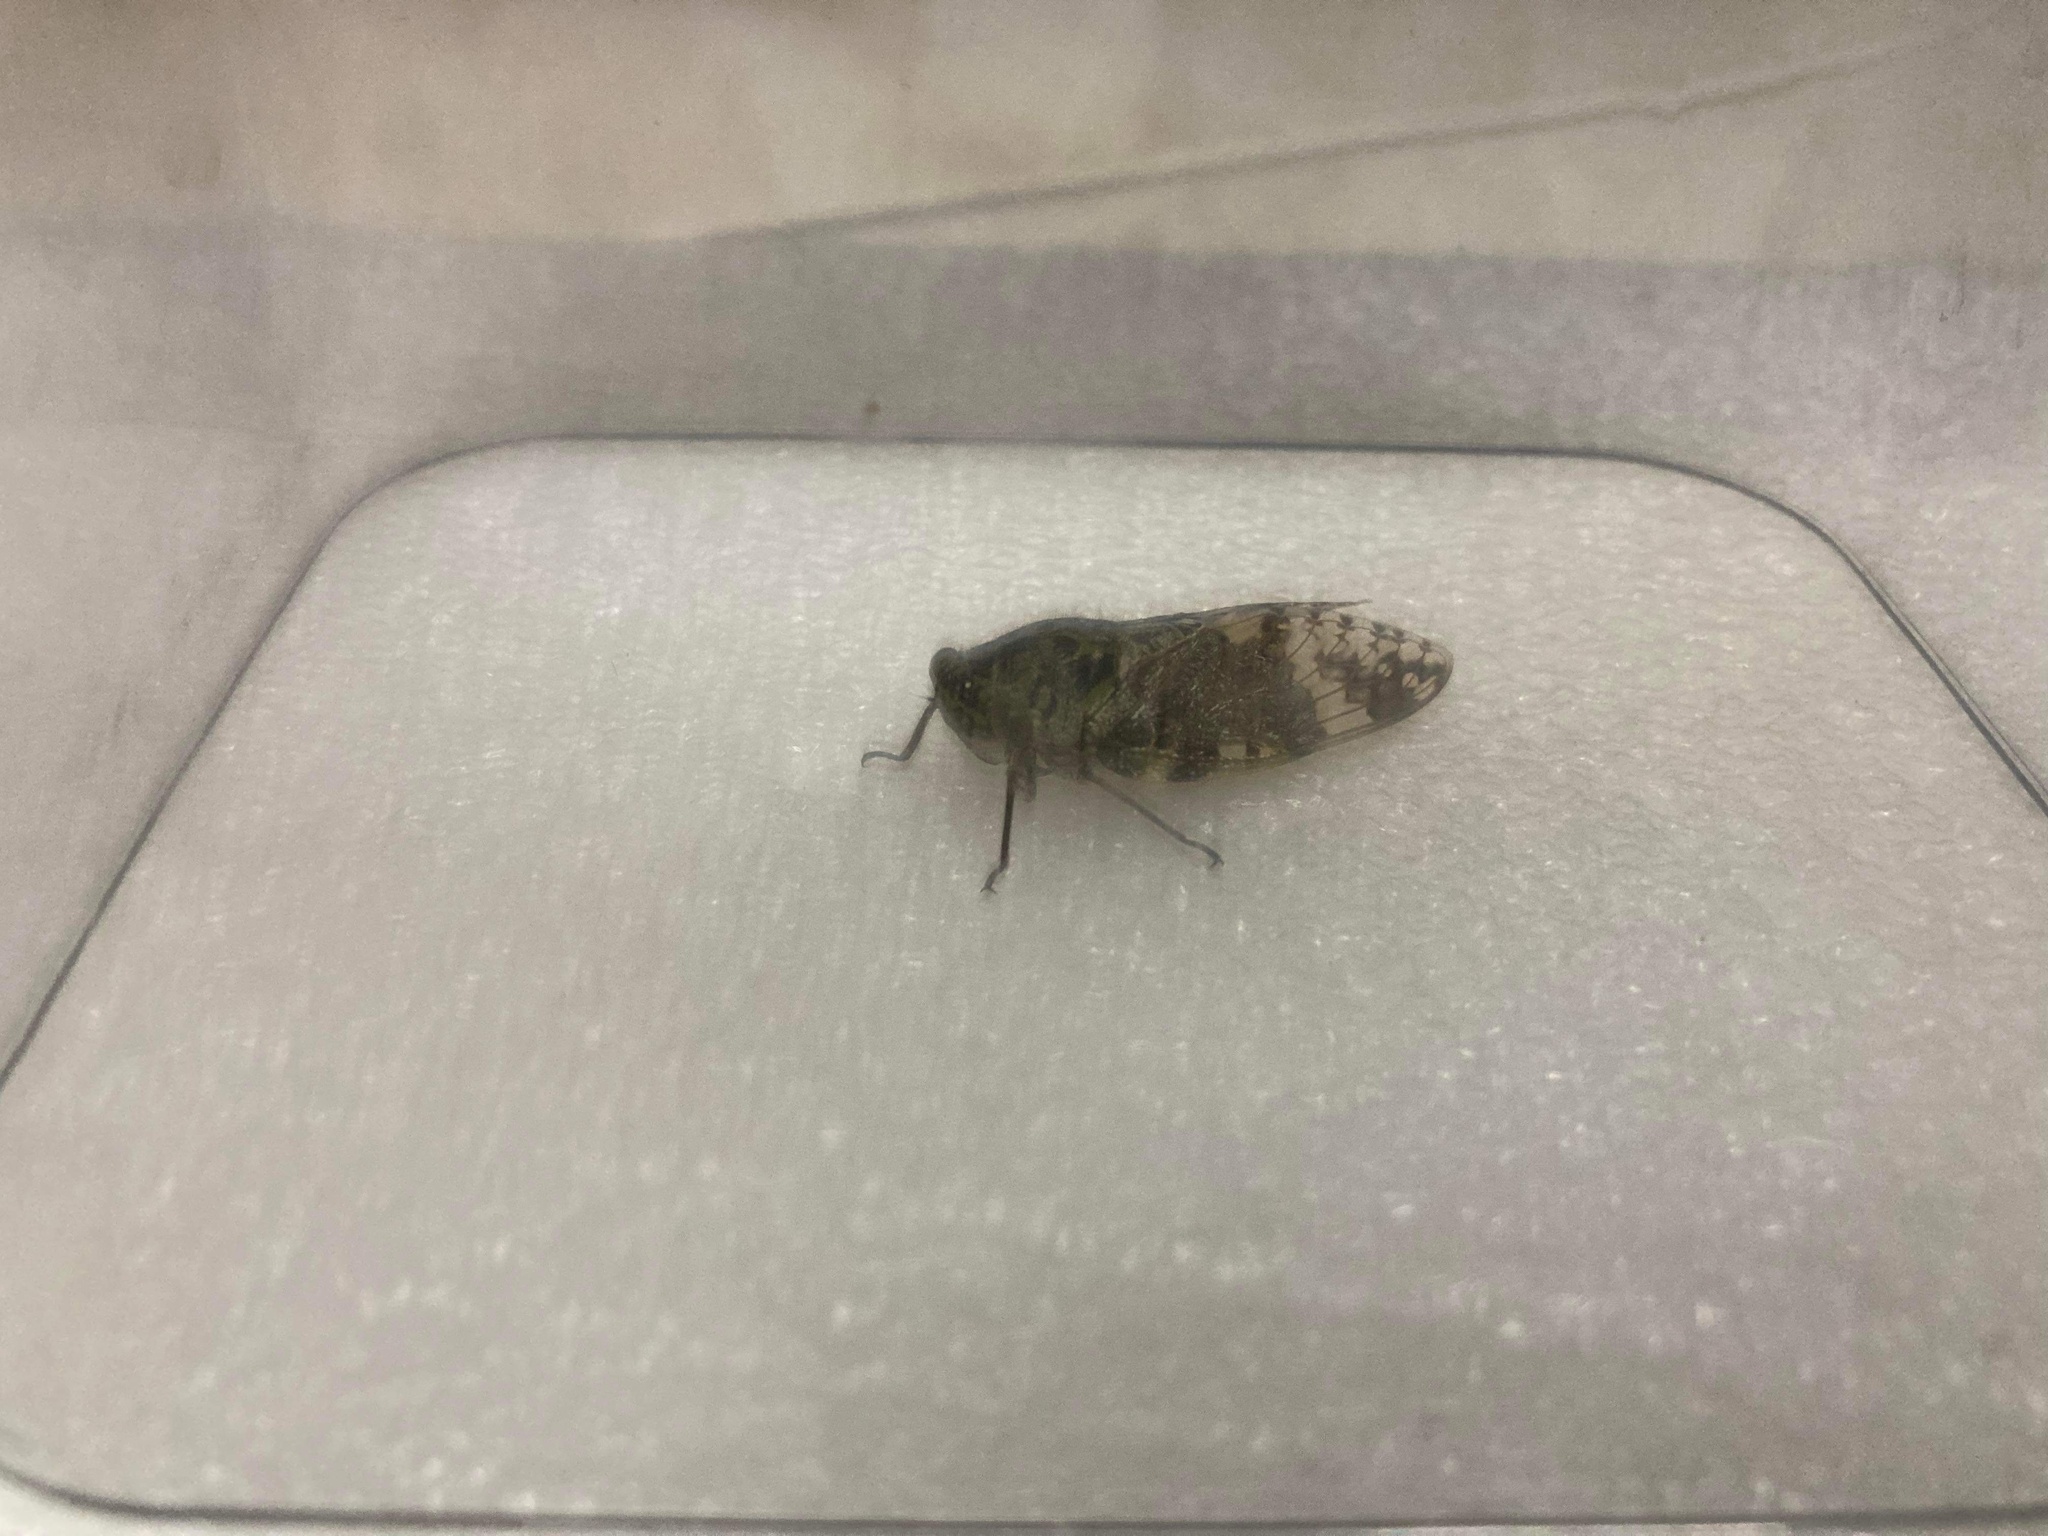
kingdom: Animalia
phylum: Arthropoda
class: Insecta
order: Hemiptera
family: Cicadidae
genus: Platypleura
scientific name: Platypleura takasagona
